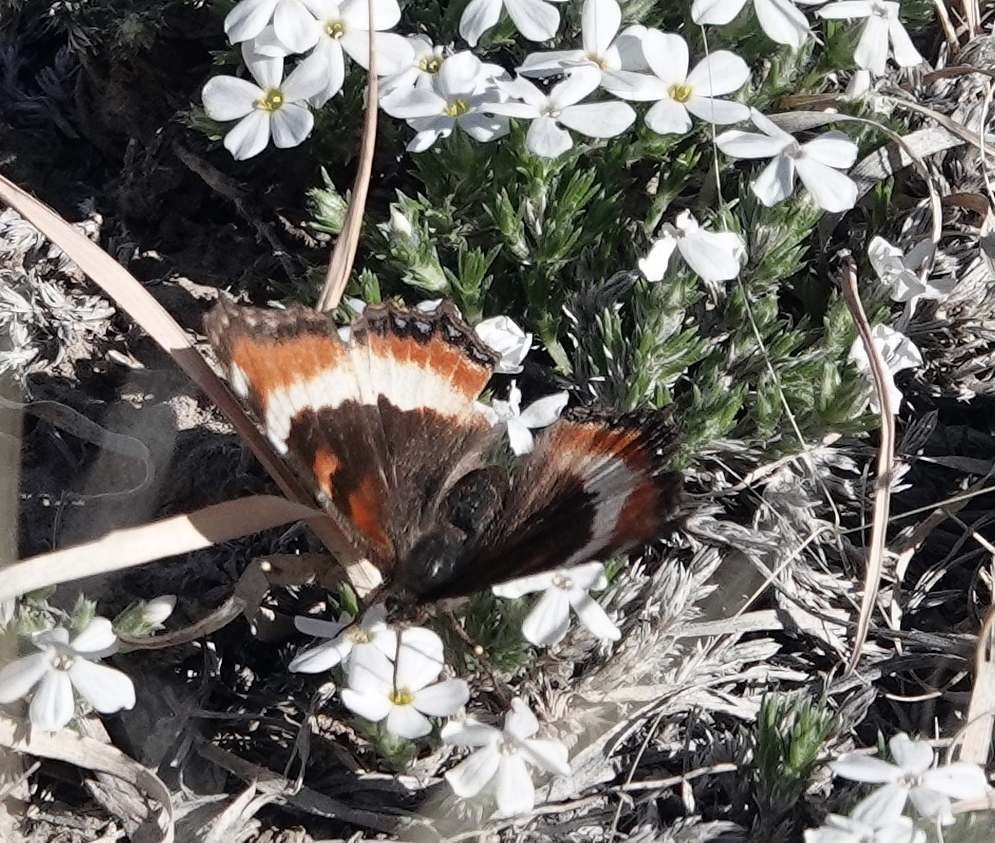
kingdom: Animalia
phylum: Arthropoda
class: Insecta
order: Lepidoptera
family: Nymphalidae
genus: Aglais
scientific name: Aglais milberti
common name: Milbert's tortoiseshell
